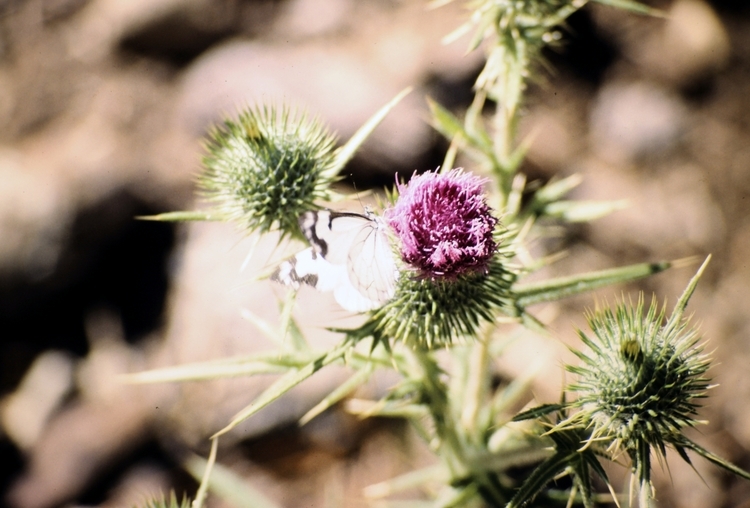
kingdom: Animalia
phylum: Arthropoda
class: Insecta
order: Lepidoptera
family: Pieridae
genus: Neophasia
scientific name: Neophasia menapia
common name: Pine white
